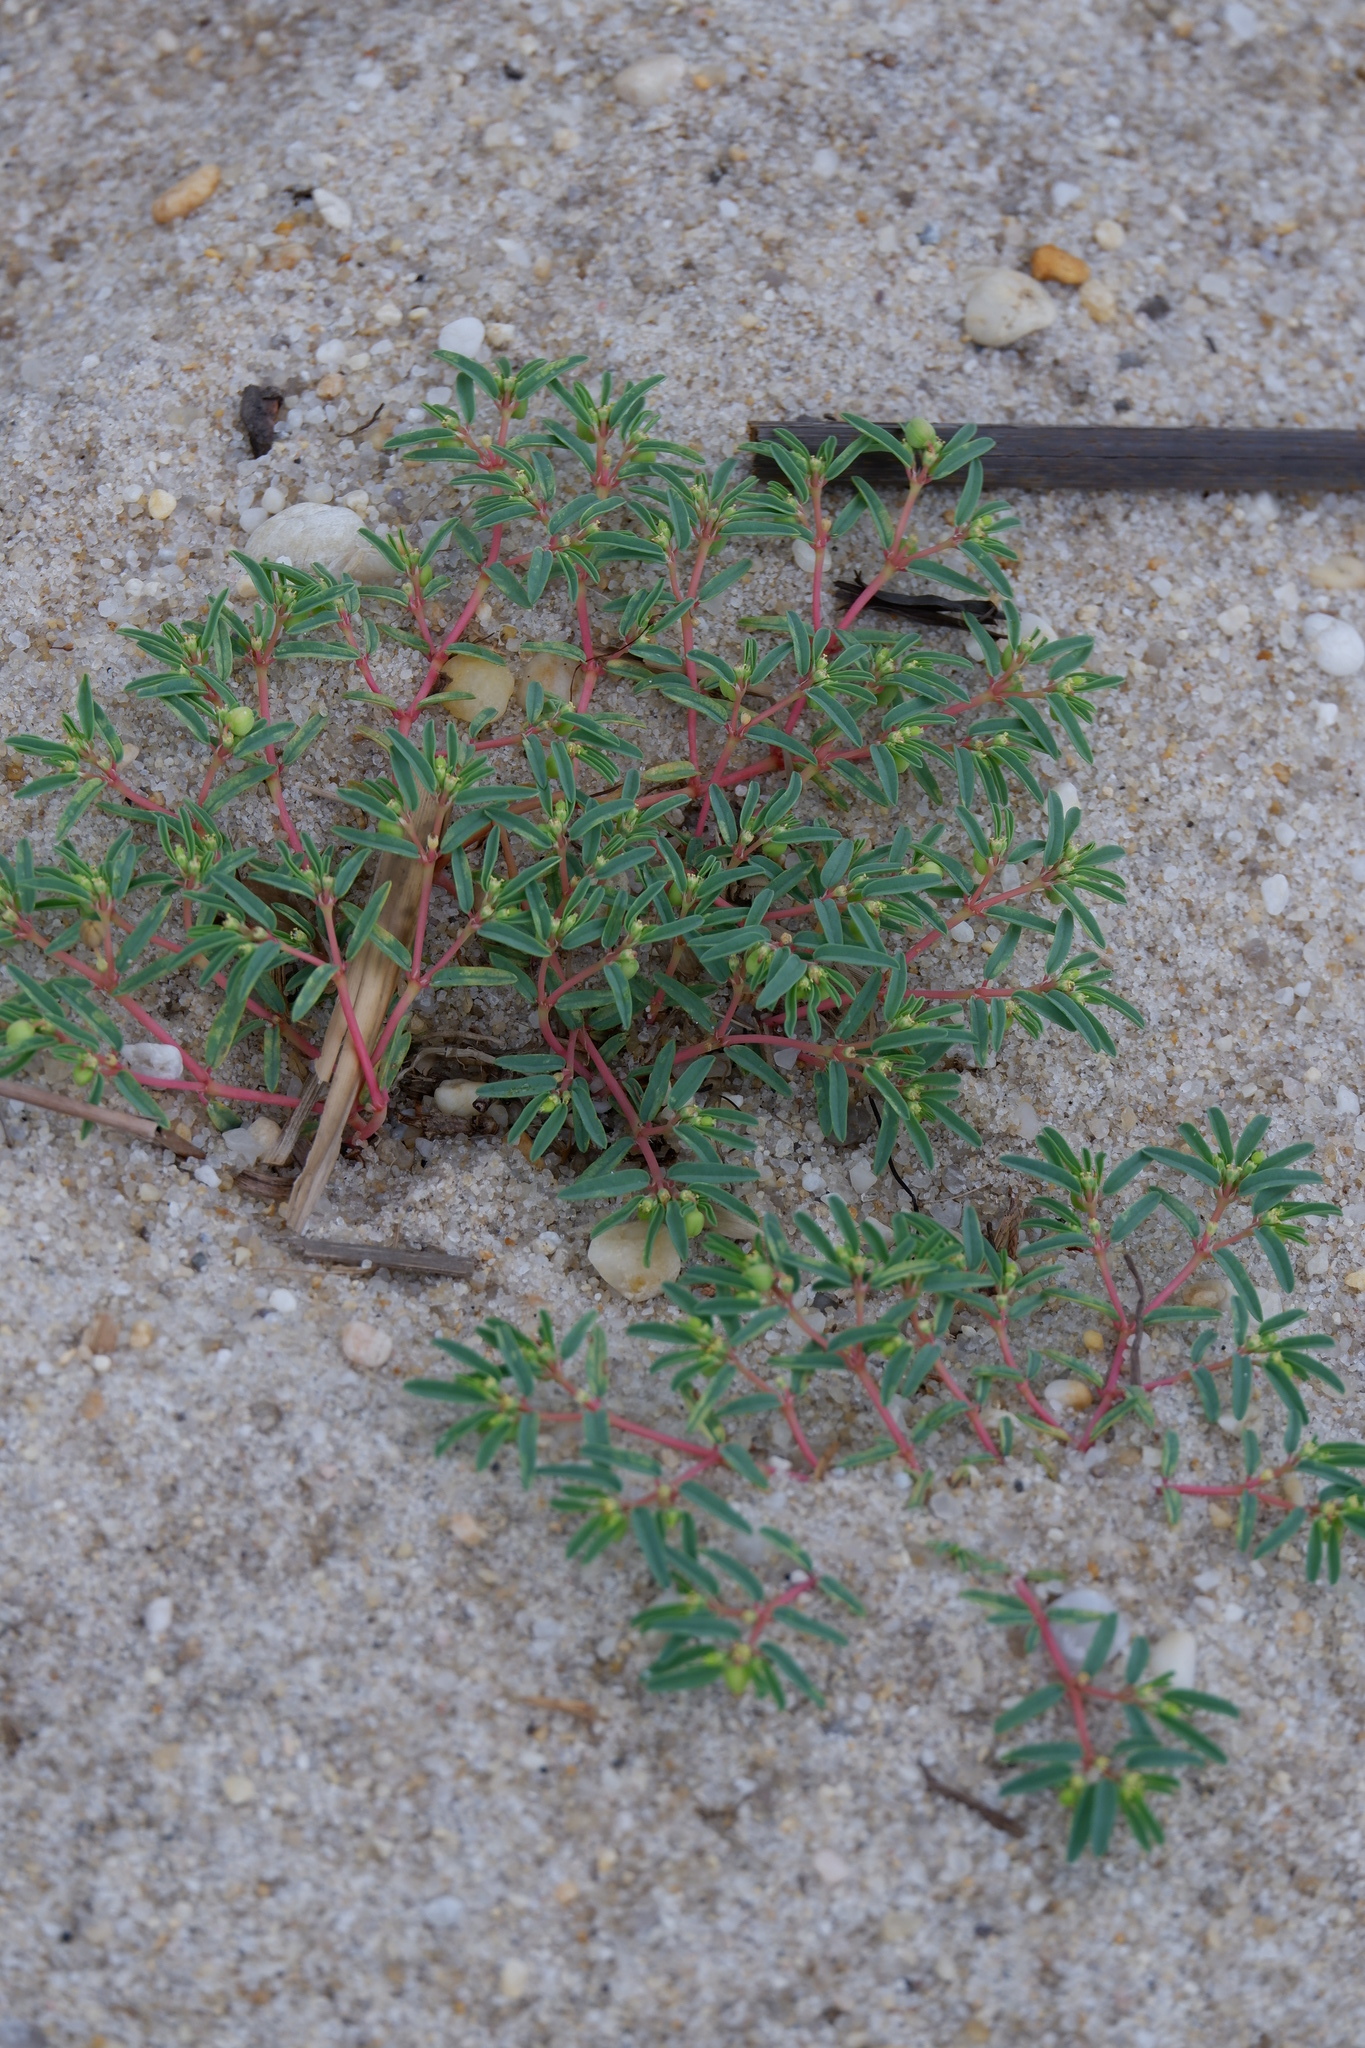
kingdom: Plantae
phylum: Tracheophyta
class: Magnoliopsida
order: Malpighiales
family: Euphorbiaceae
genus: Euphorbia
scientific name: Euphorbia polygonifolia
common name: Knotweed spurge
